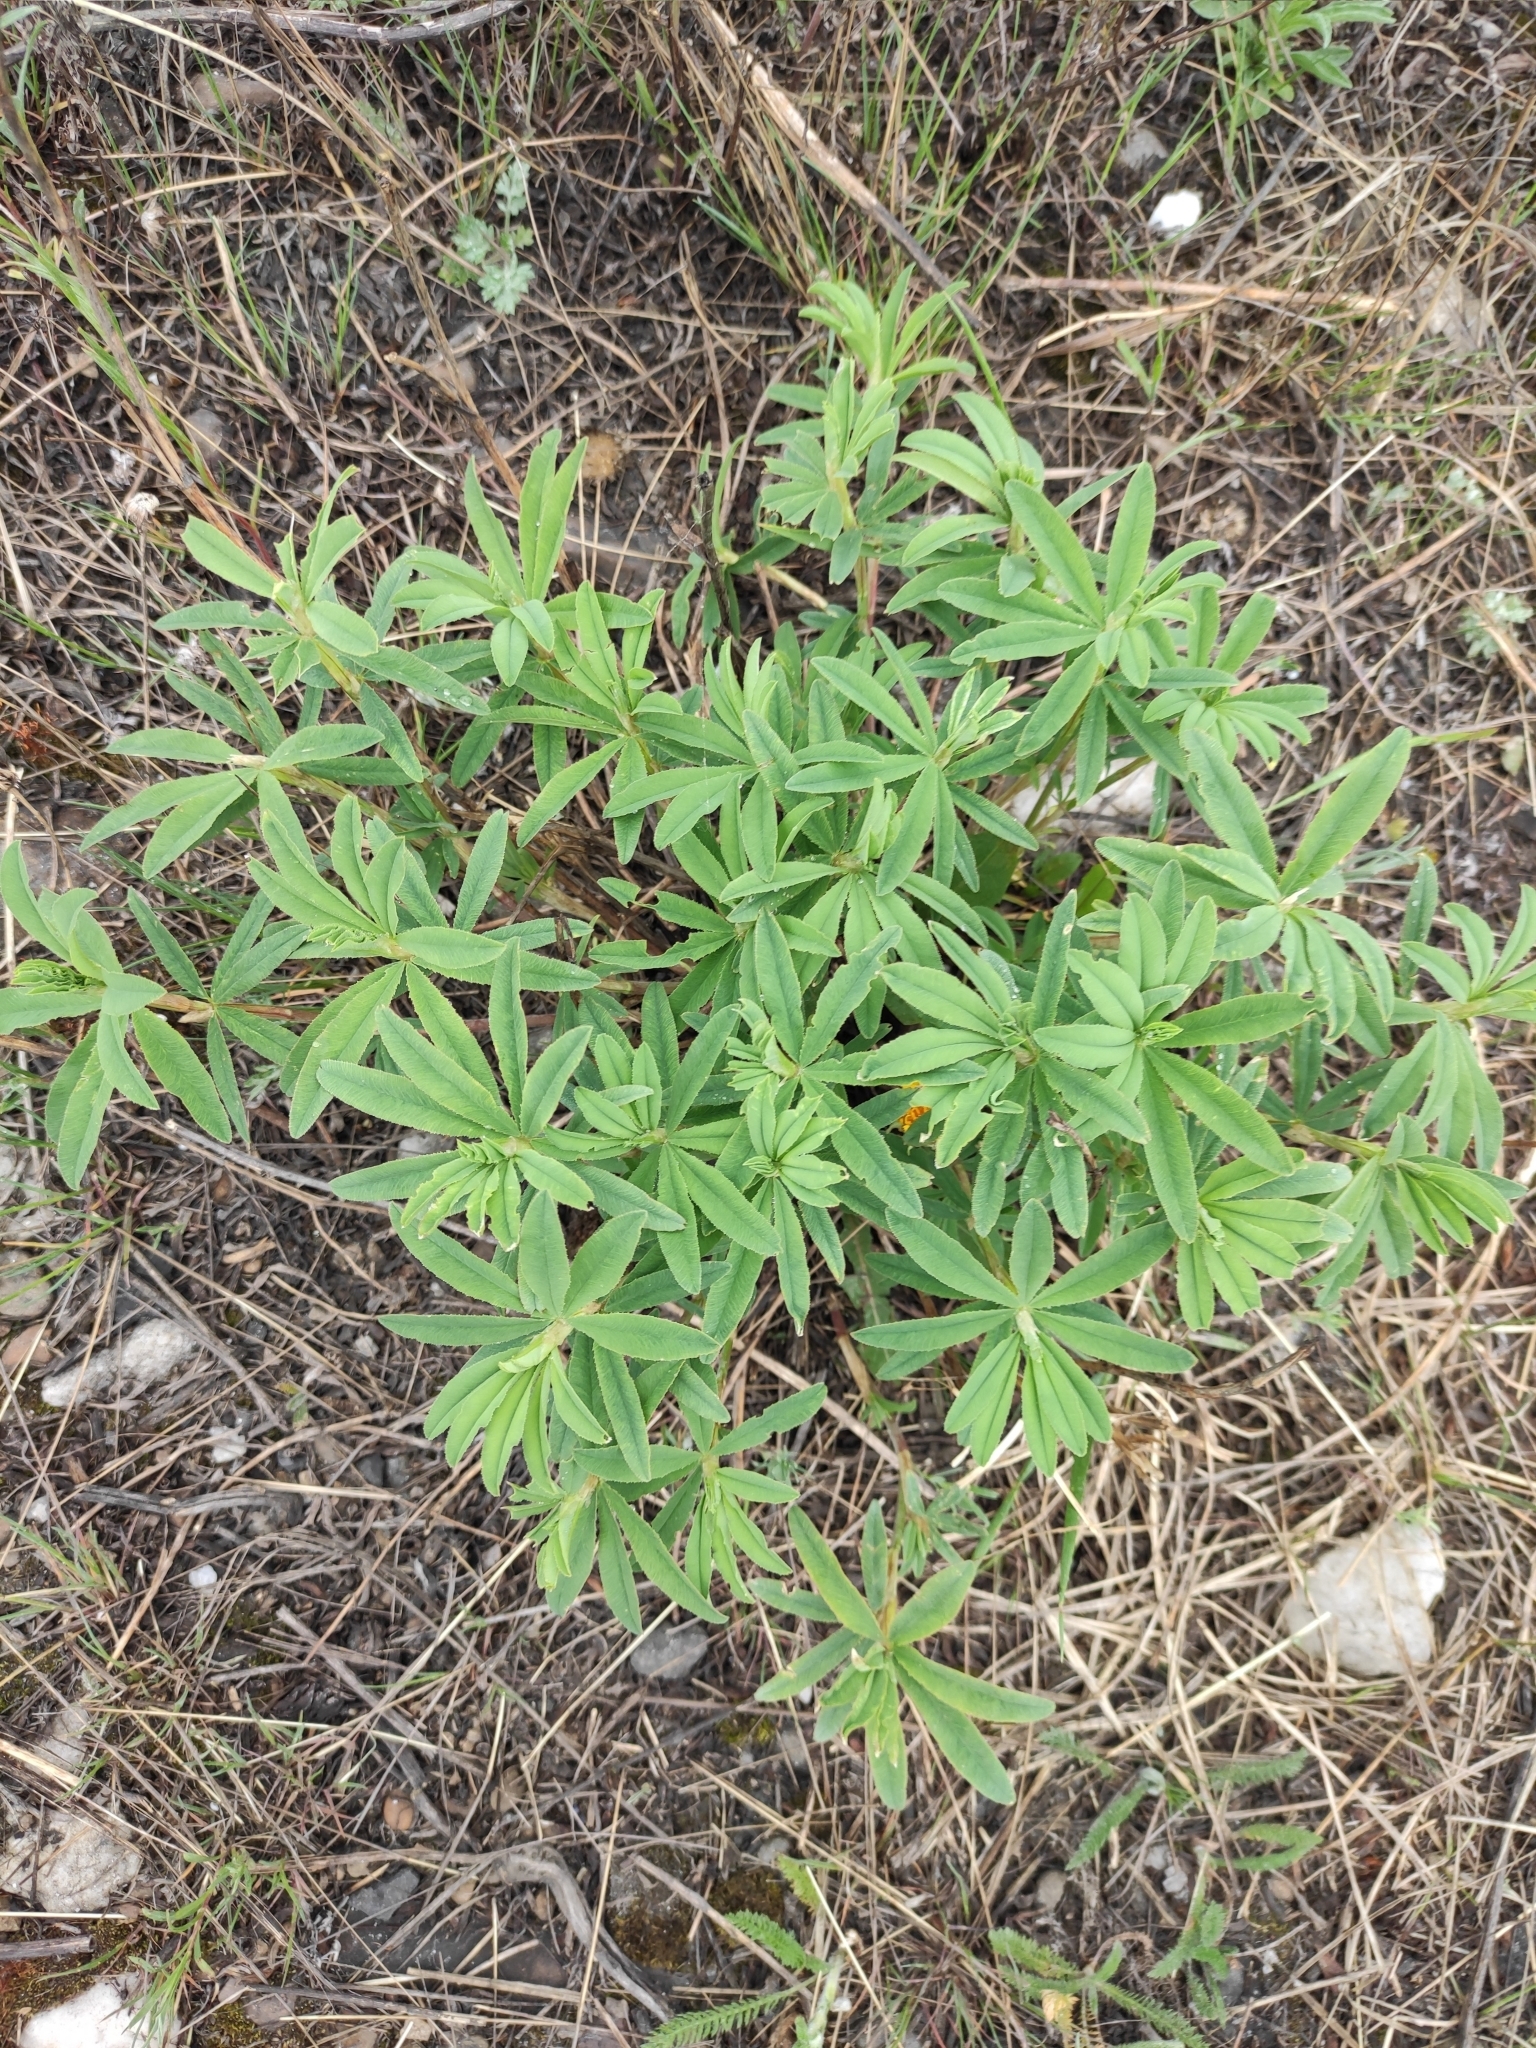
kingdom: Plantae
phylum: Tracheophyta
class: Magnoliopsida
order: Fabales
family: Fabaceae
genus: Trifolium
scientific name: Trifolium lupinaster
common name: Lupine clover
